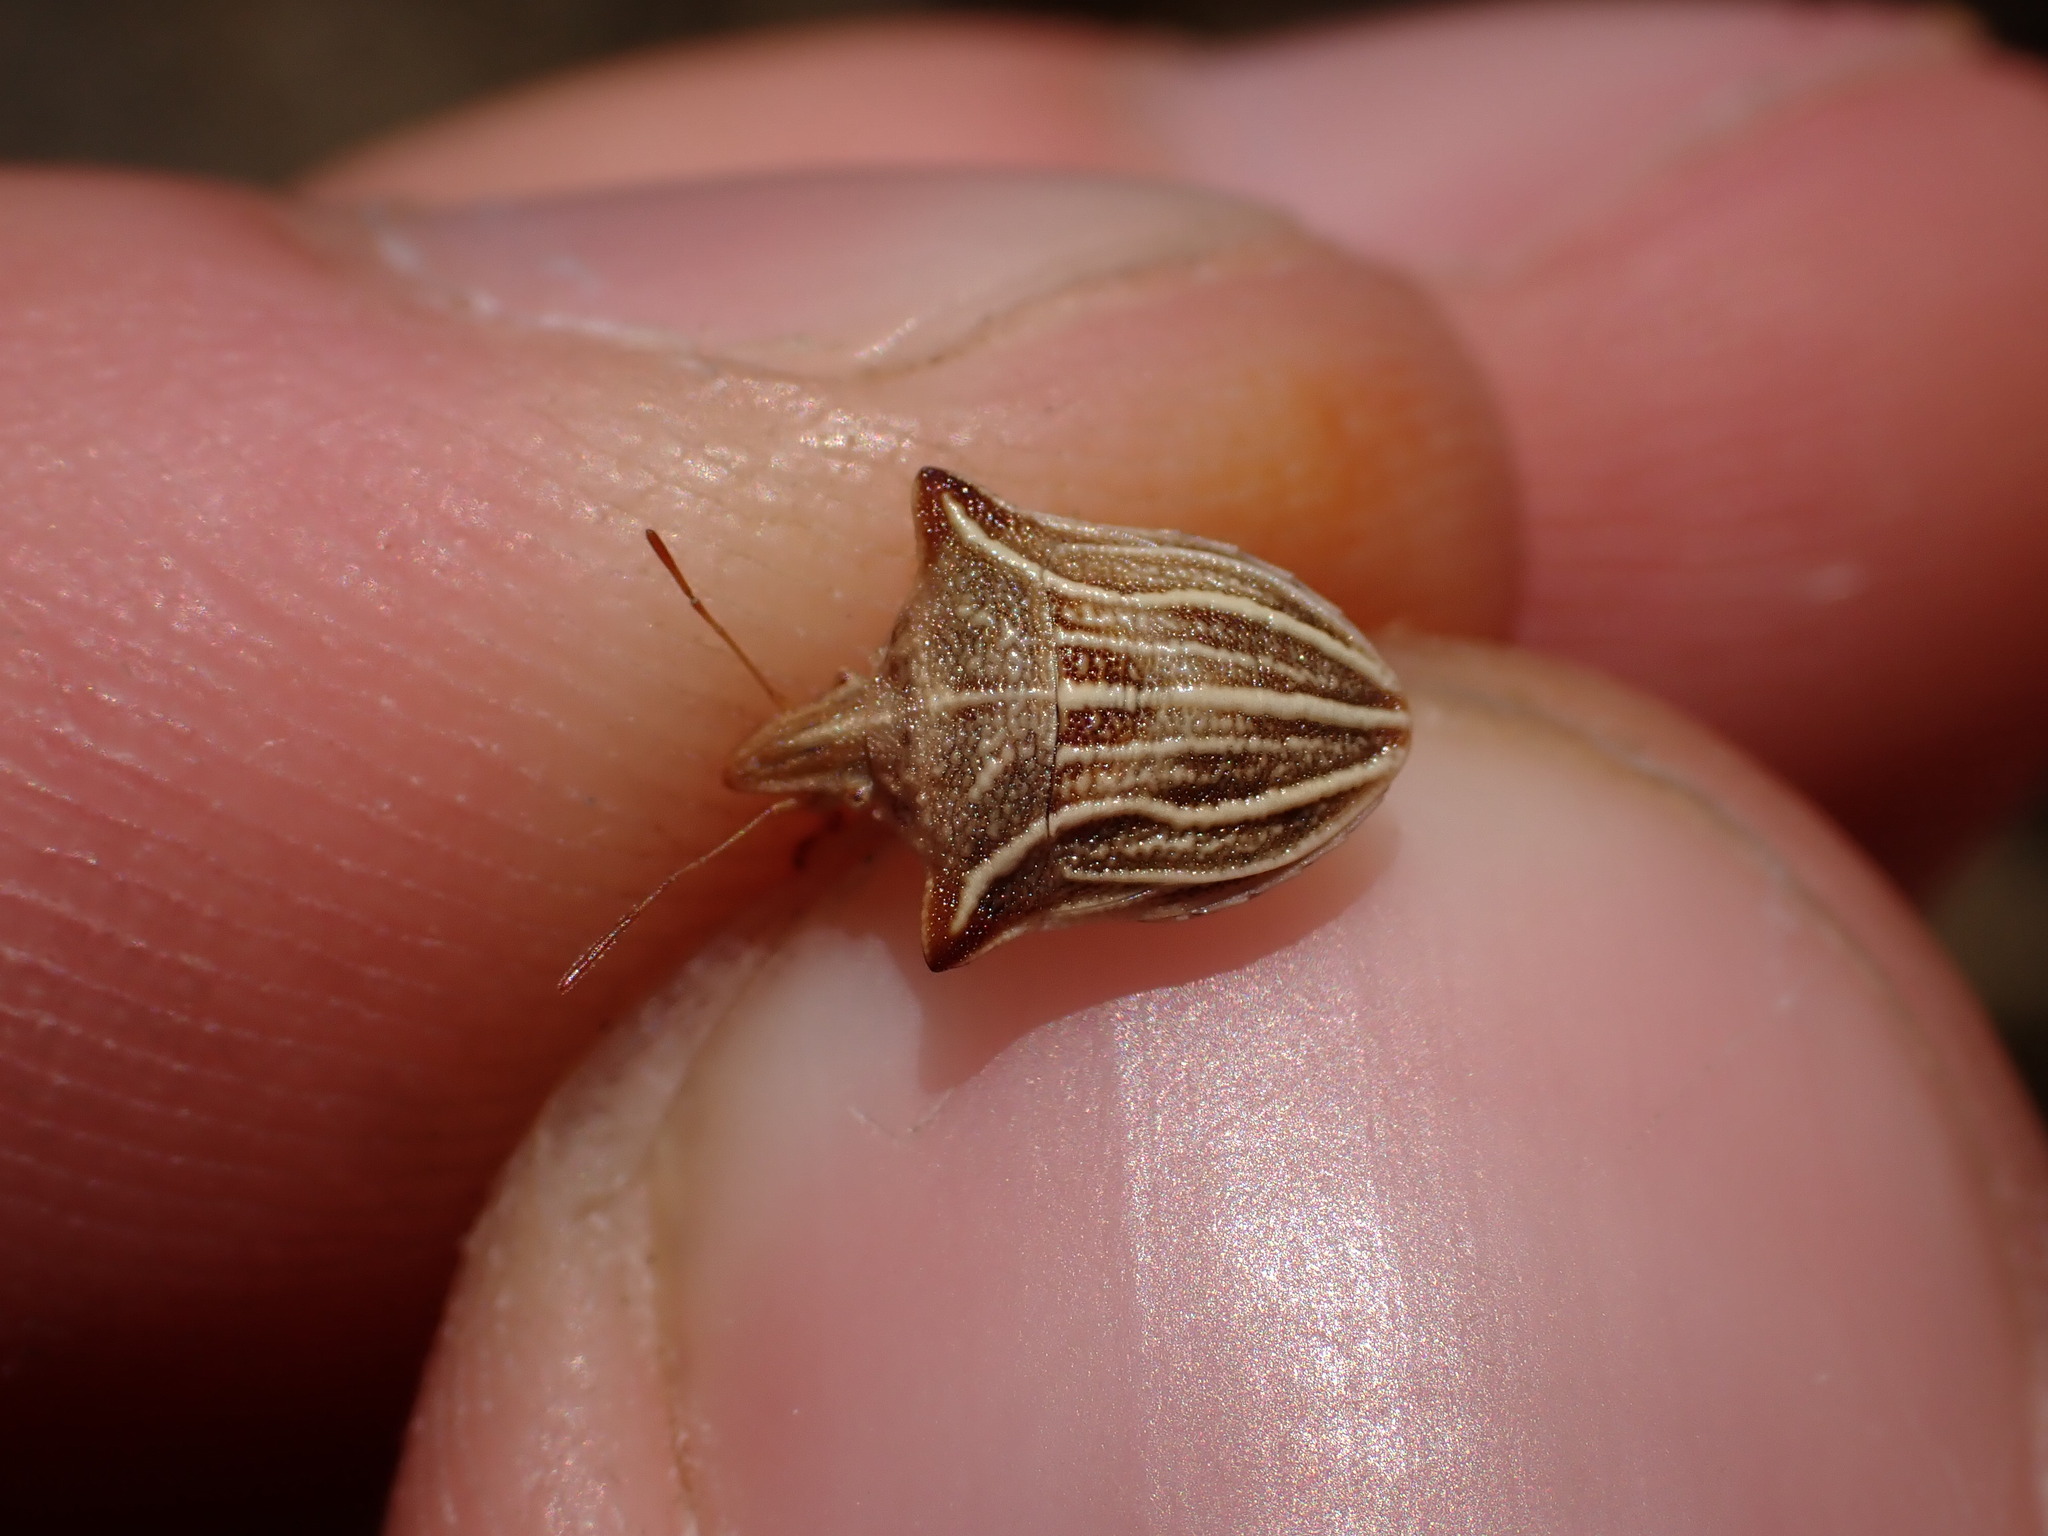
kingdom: Animalia
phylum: Arthropoda
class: Insecta
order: Hemiptera
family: Pentatomidae
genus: Ancyrosoma
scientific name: Ancyrosoma leucogrammes
